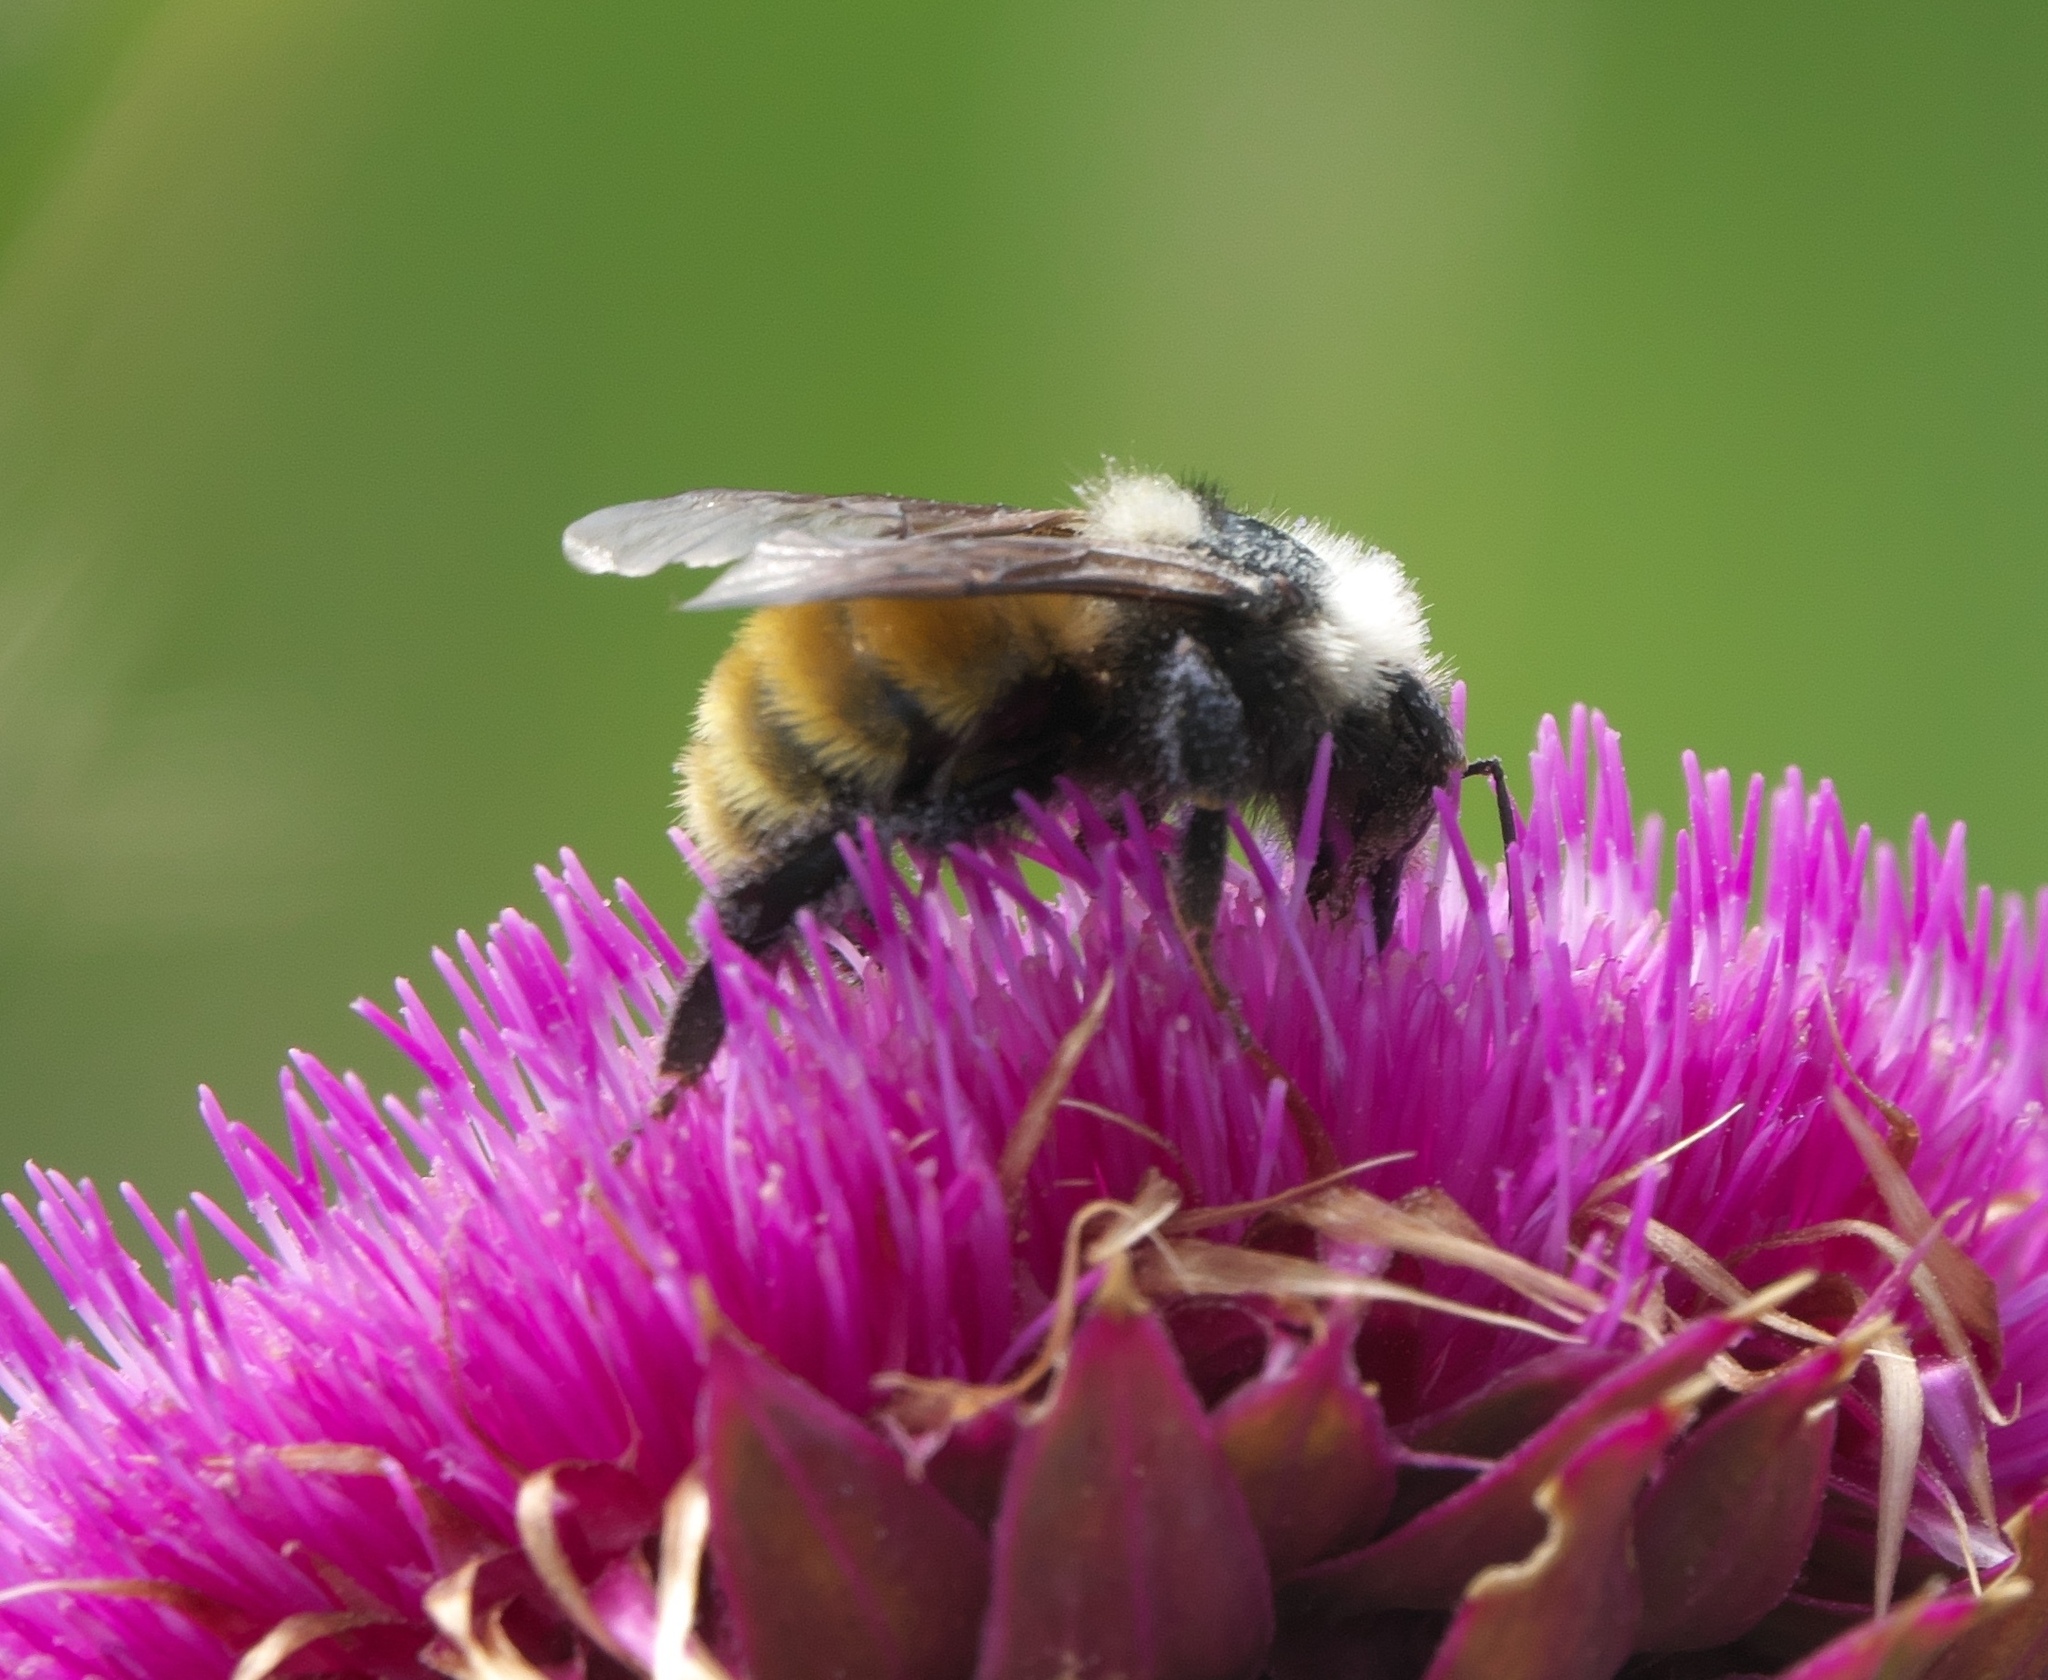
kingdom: Animalia
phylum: Arthropoda
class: Insecta
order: Hymenoptera
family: Apidae
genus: Bombus
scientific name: Bombus appositus
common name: White-shouldered bumble bee
